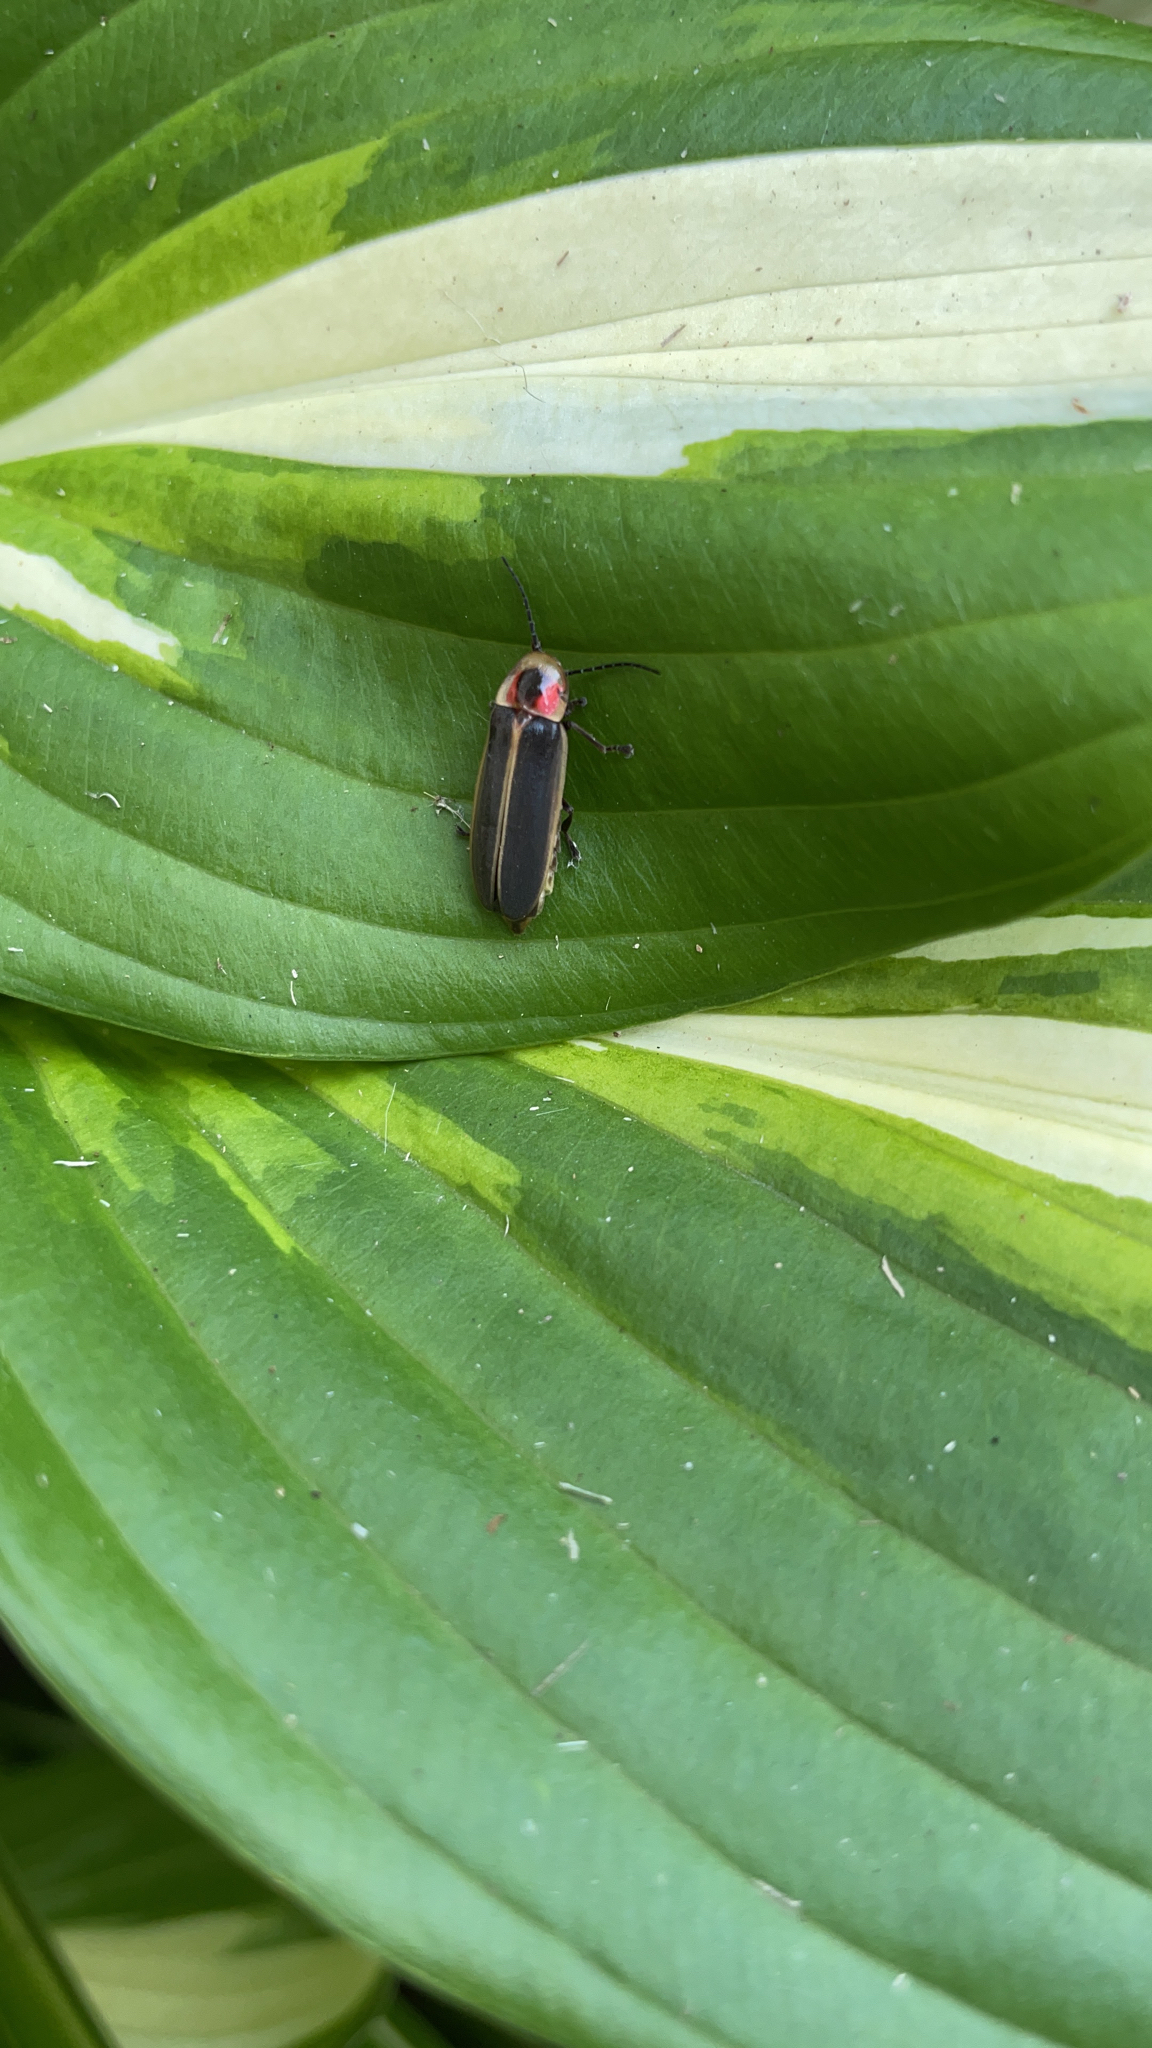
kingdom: Animalia
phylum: Arthropoda
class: Insecta
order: Coleoptera
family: Lampyridae
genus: Photinus
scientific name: Photinus pyralis
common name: Big dipper firefly
